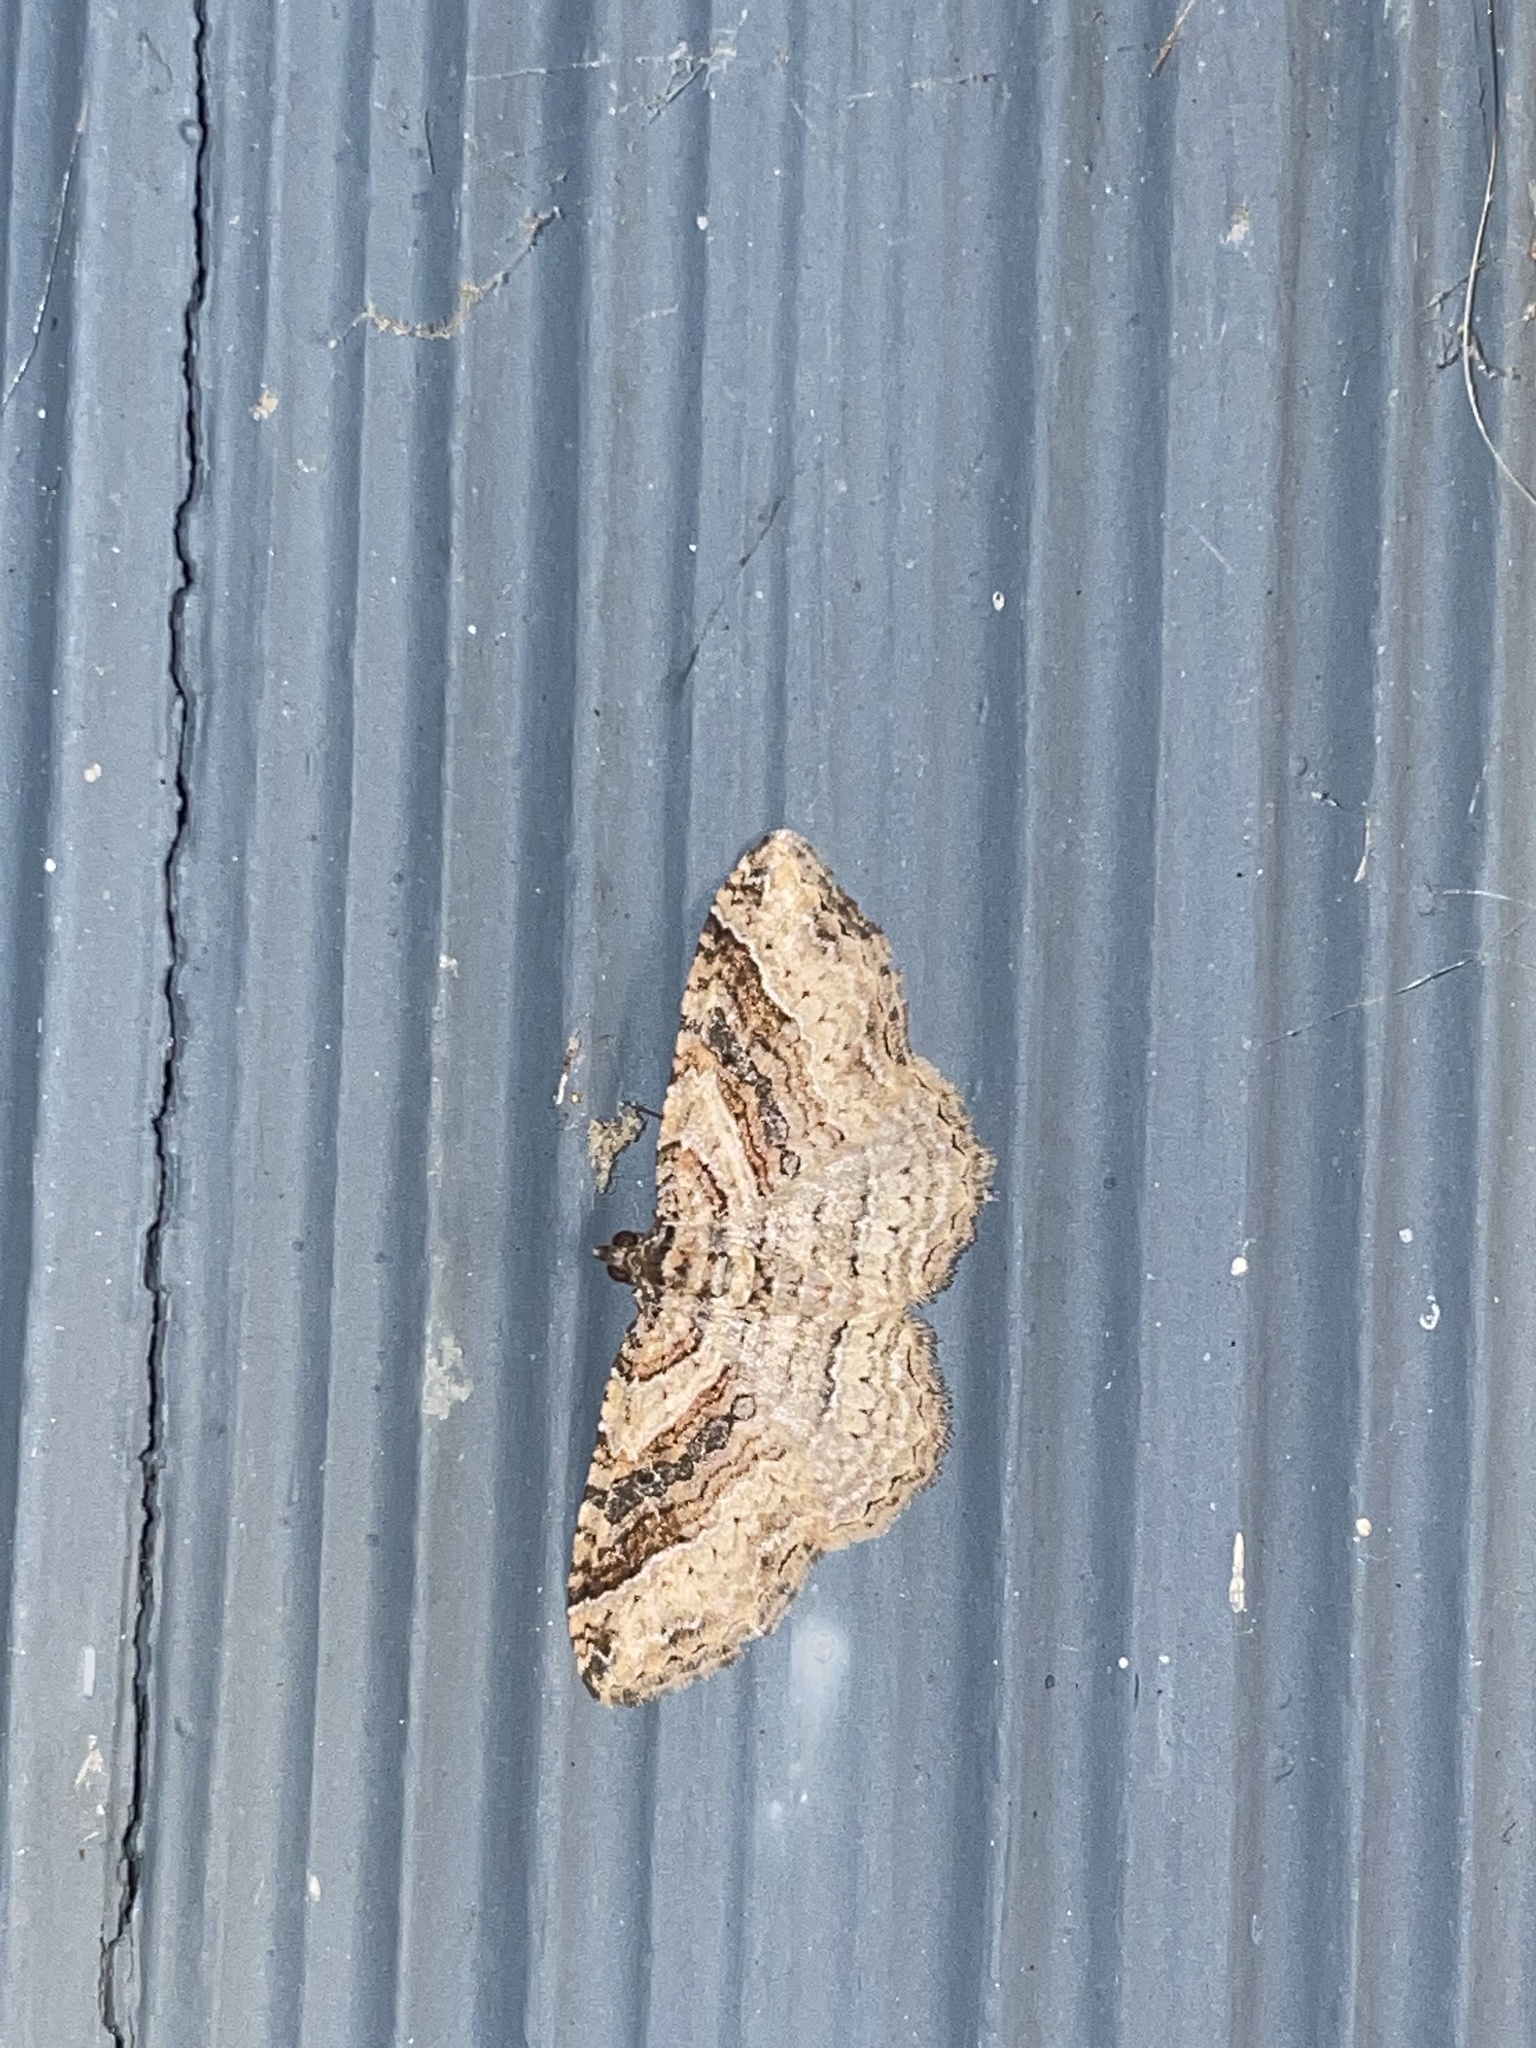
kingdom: Animalia
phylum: Arthropoda
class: Insecta
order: Lepidoptera
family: Geometridae
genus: Costaconvexa
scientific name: Costaconvexa centrostrigaria
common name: Bent-line carpet
